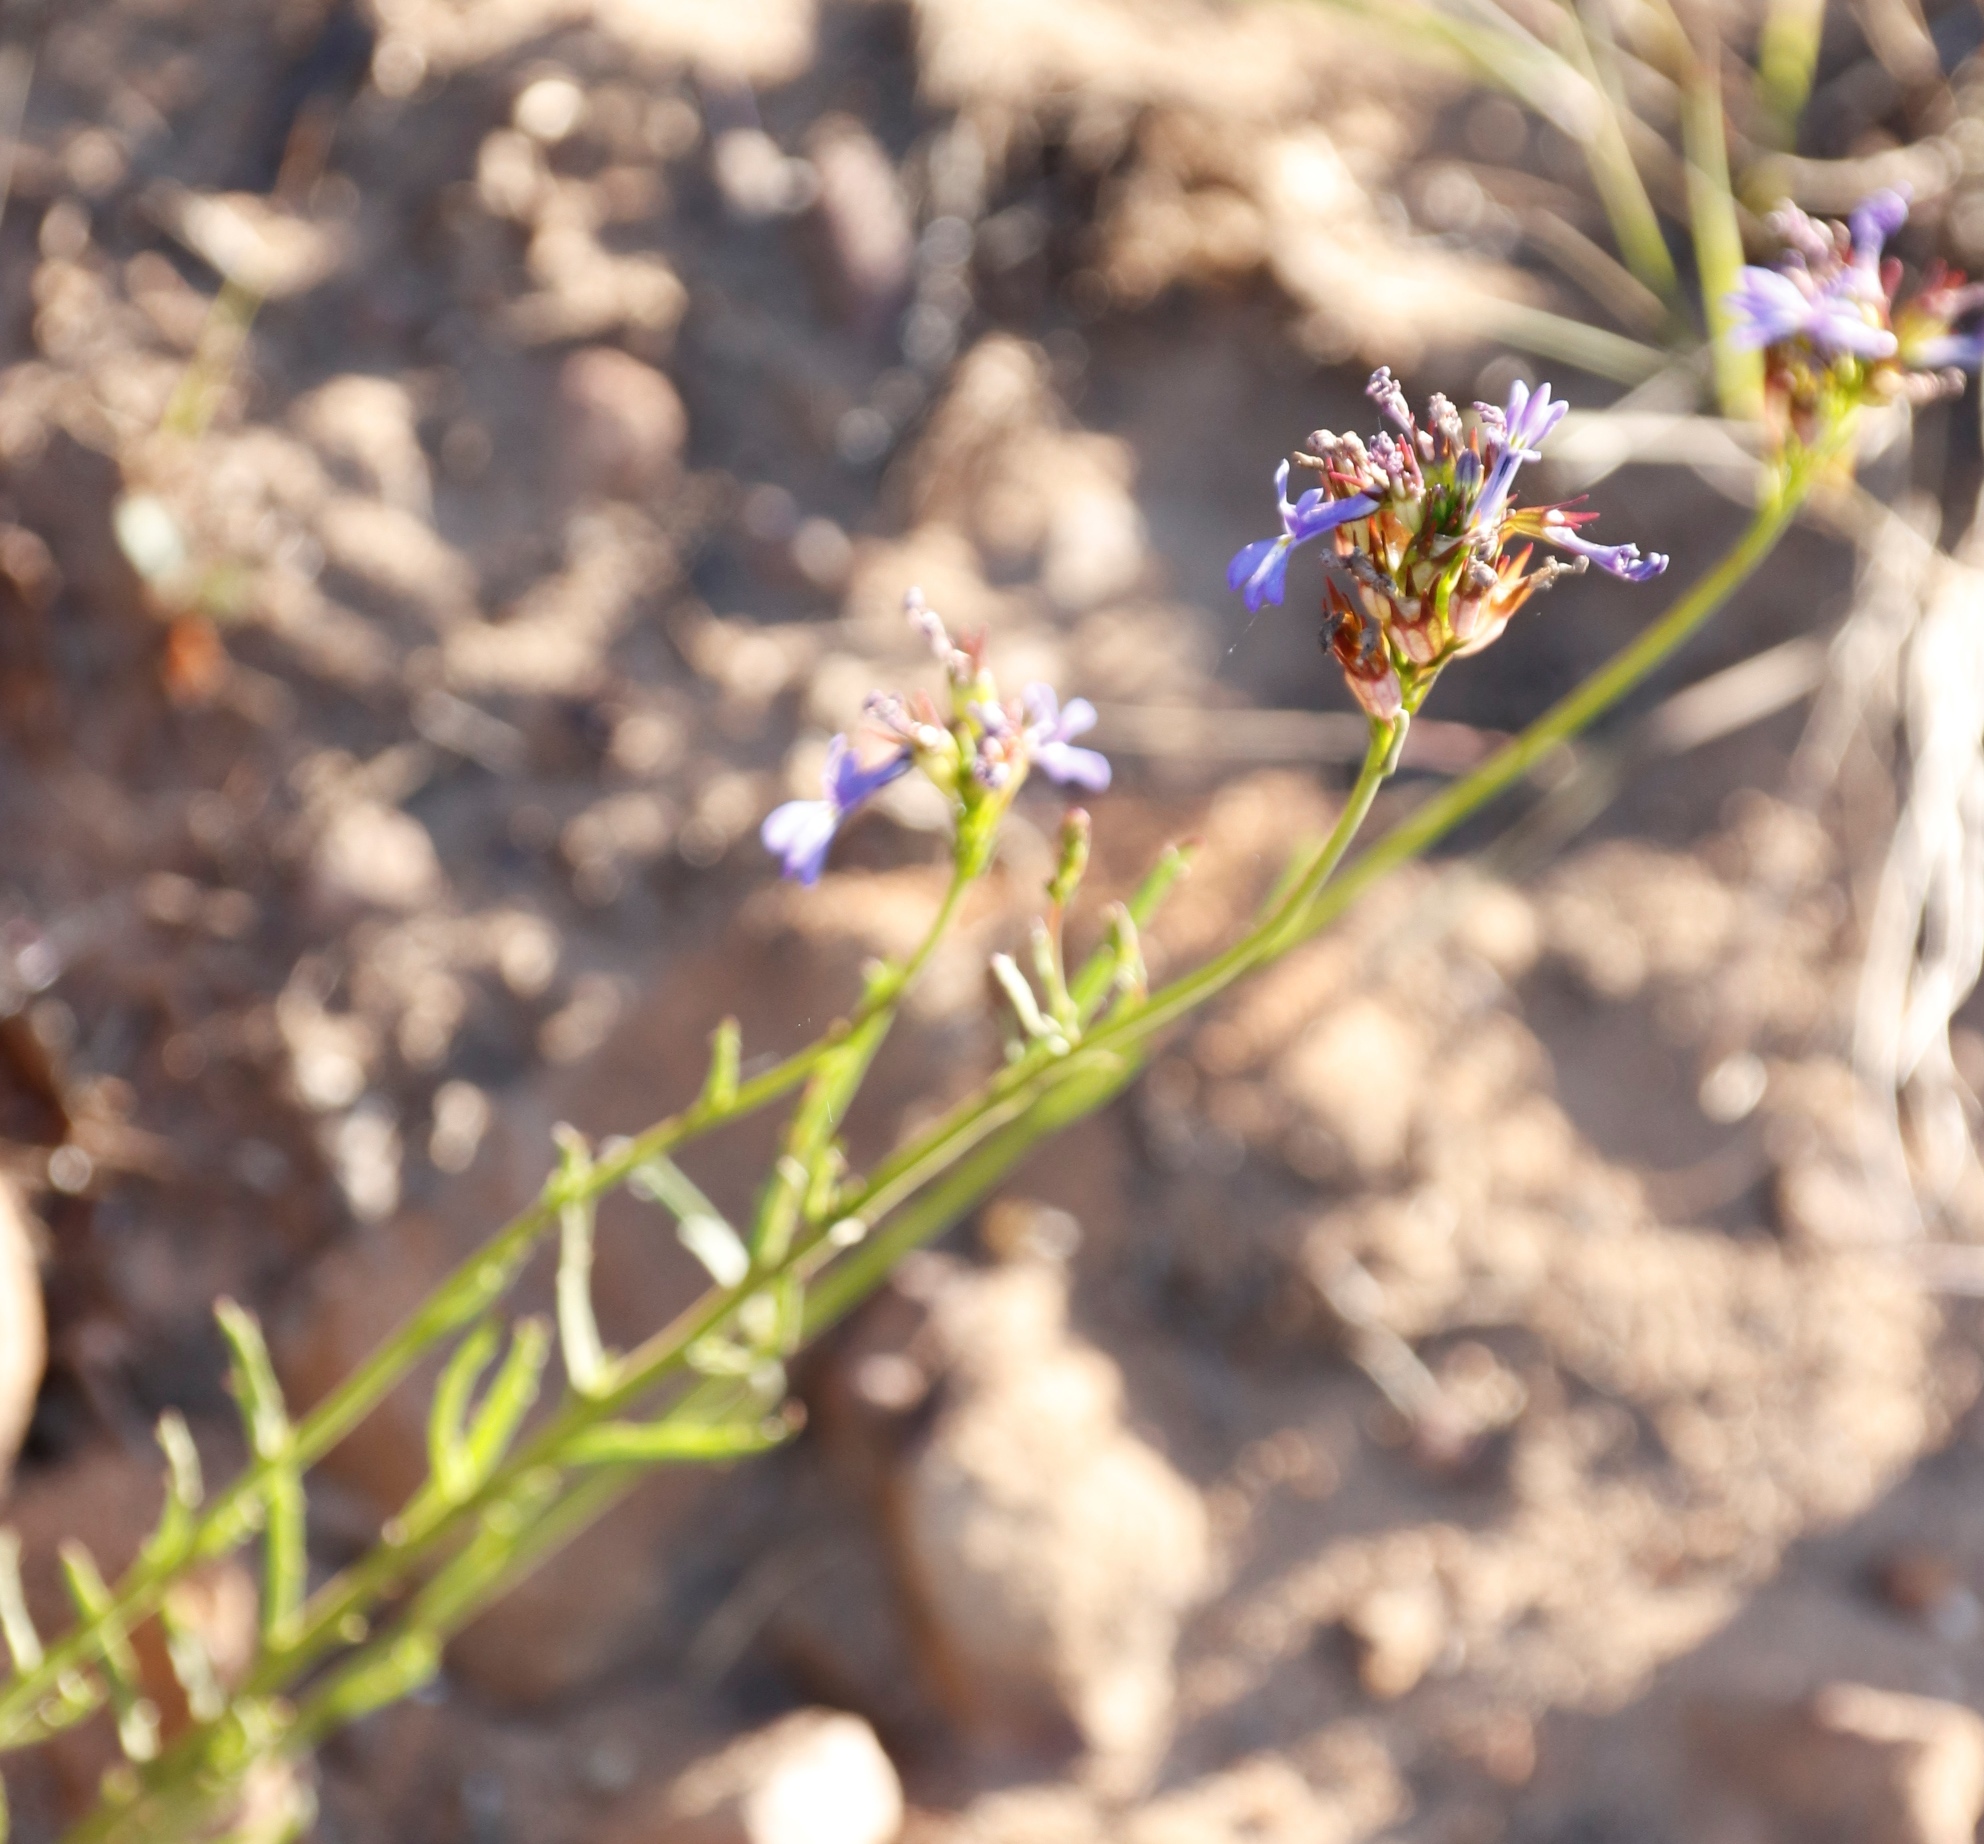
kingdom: Plantae
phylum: Tracheophyta
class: Magnoliopsida
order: Asterales
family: Campanulaceae
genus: Lobelia
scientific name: Lobelia comosa
